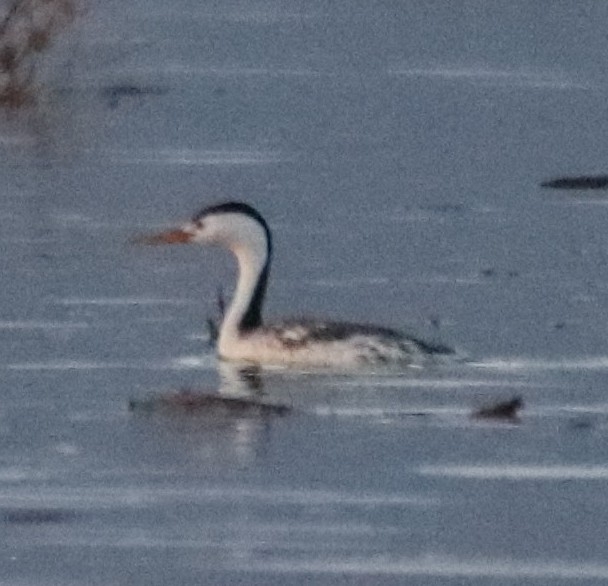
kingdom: Animalia
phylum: Chordata
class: Aves
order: Podicipediformes
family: Podicipedidae
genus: Aechmophorus
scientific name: Aechmophorus clarkii
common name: Clark's grebe
